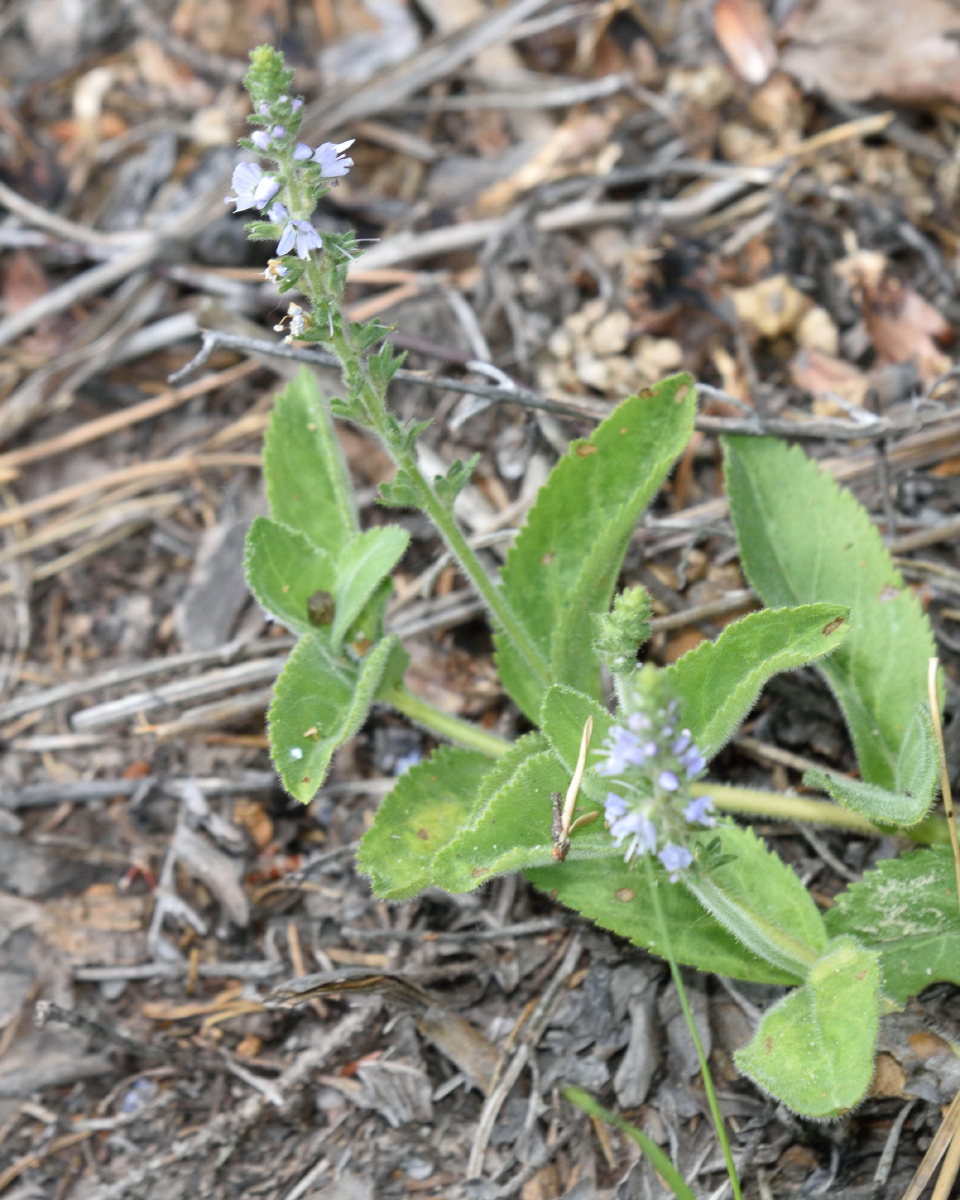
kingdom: Plantae
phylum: Tracheophyta
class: Magnoliopsida
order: Lamiales
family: Plantaginaceae
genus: Veronica
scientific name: Veronica officinalis
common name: Common speedwell
